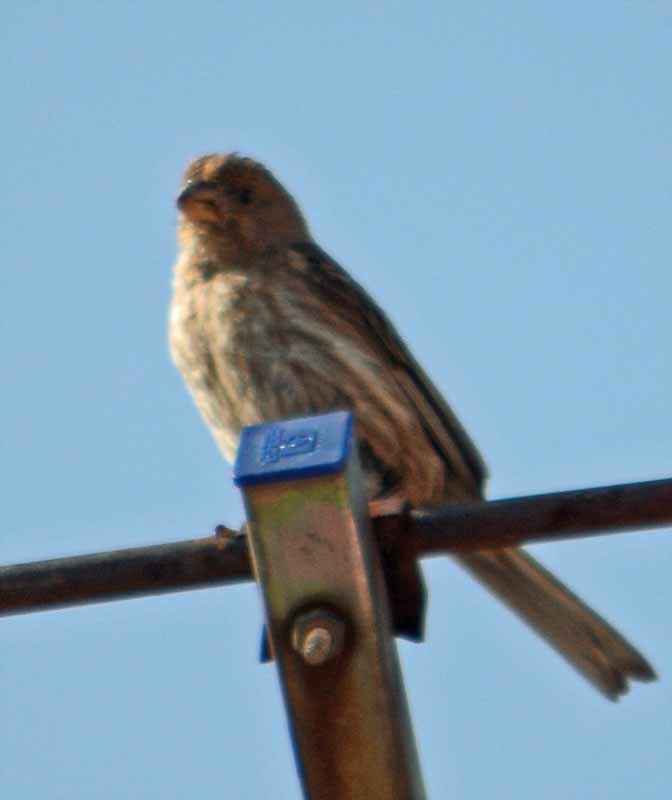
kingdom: Animalia
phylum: Chordata
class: Aves
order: Passeriformes
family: Fringillidae
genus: Haemorhous
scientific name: Haemorhous mexicanus
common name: House finch
